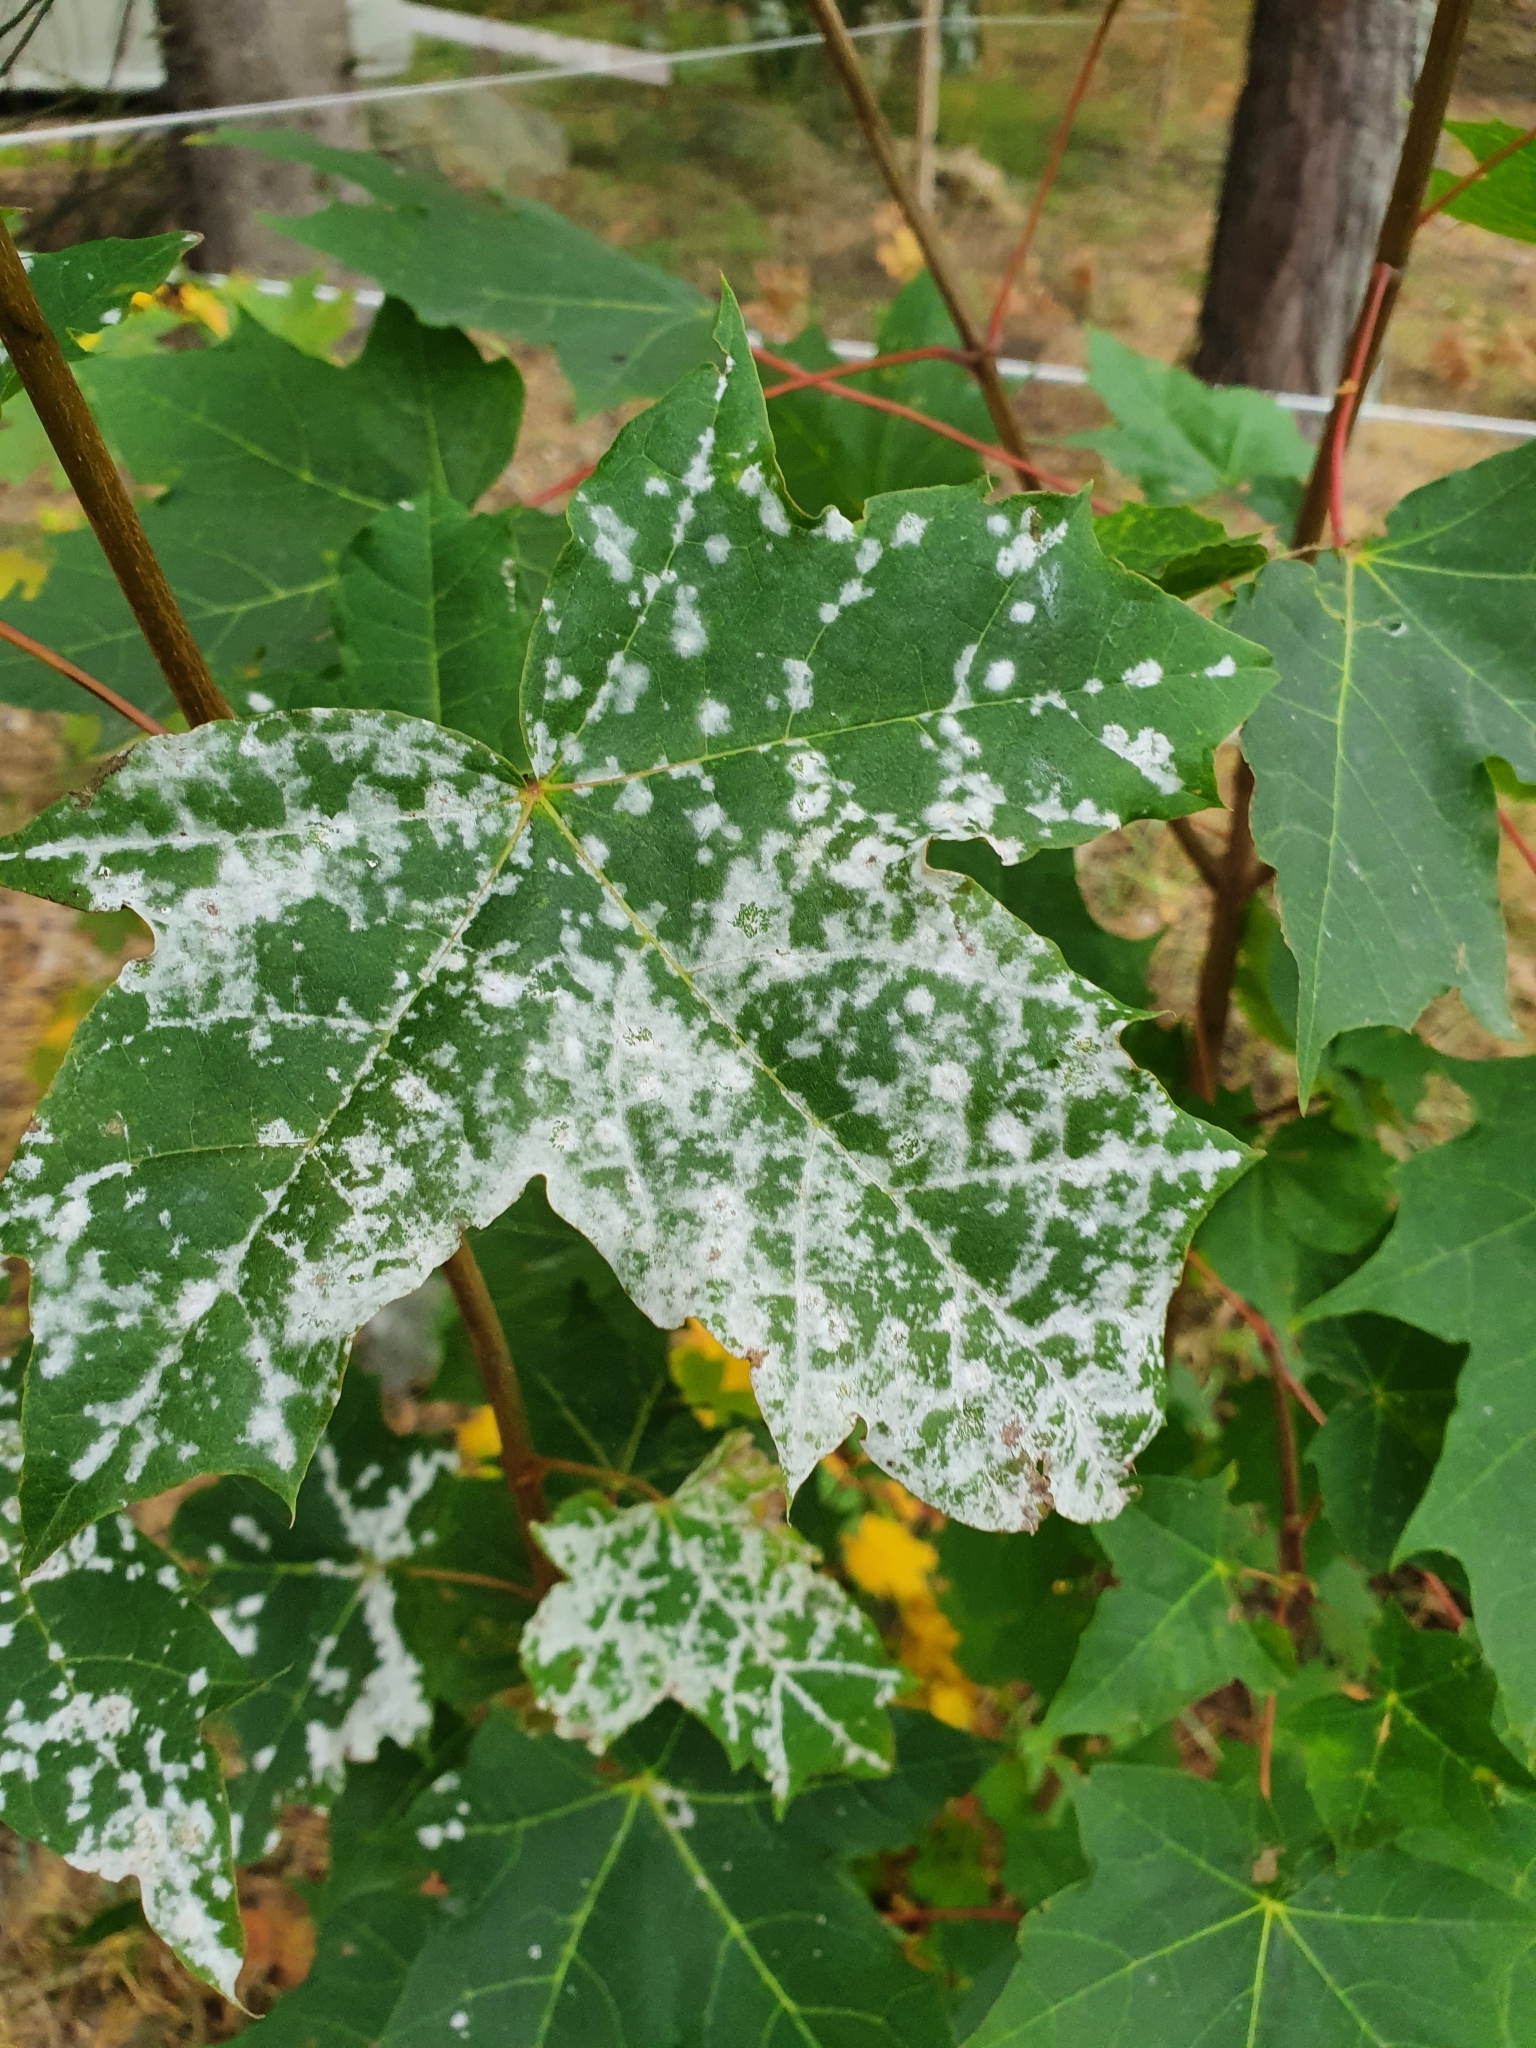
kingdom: Fungi
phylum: Ascomycota
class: Leotiomycetes
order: Helotiales
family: Erysiphaceae
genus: Sawadaea
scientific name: Sawadaea tulasnei
